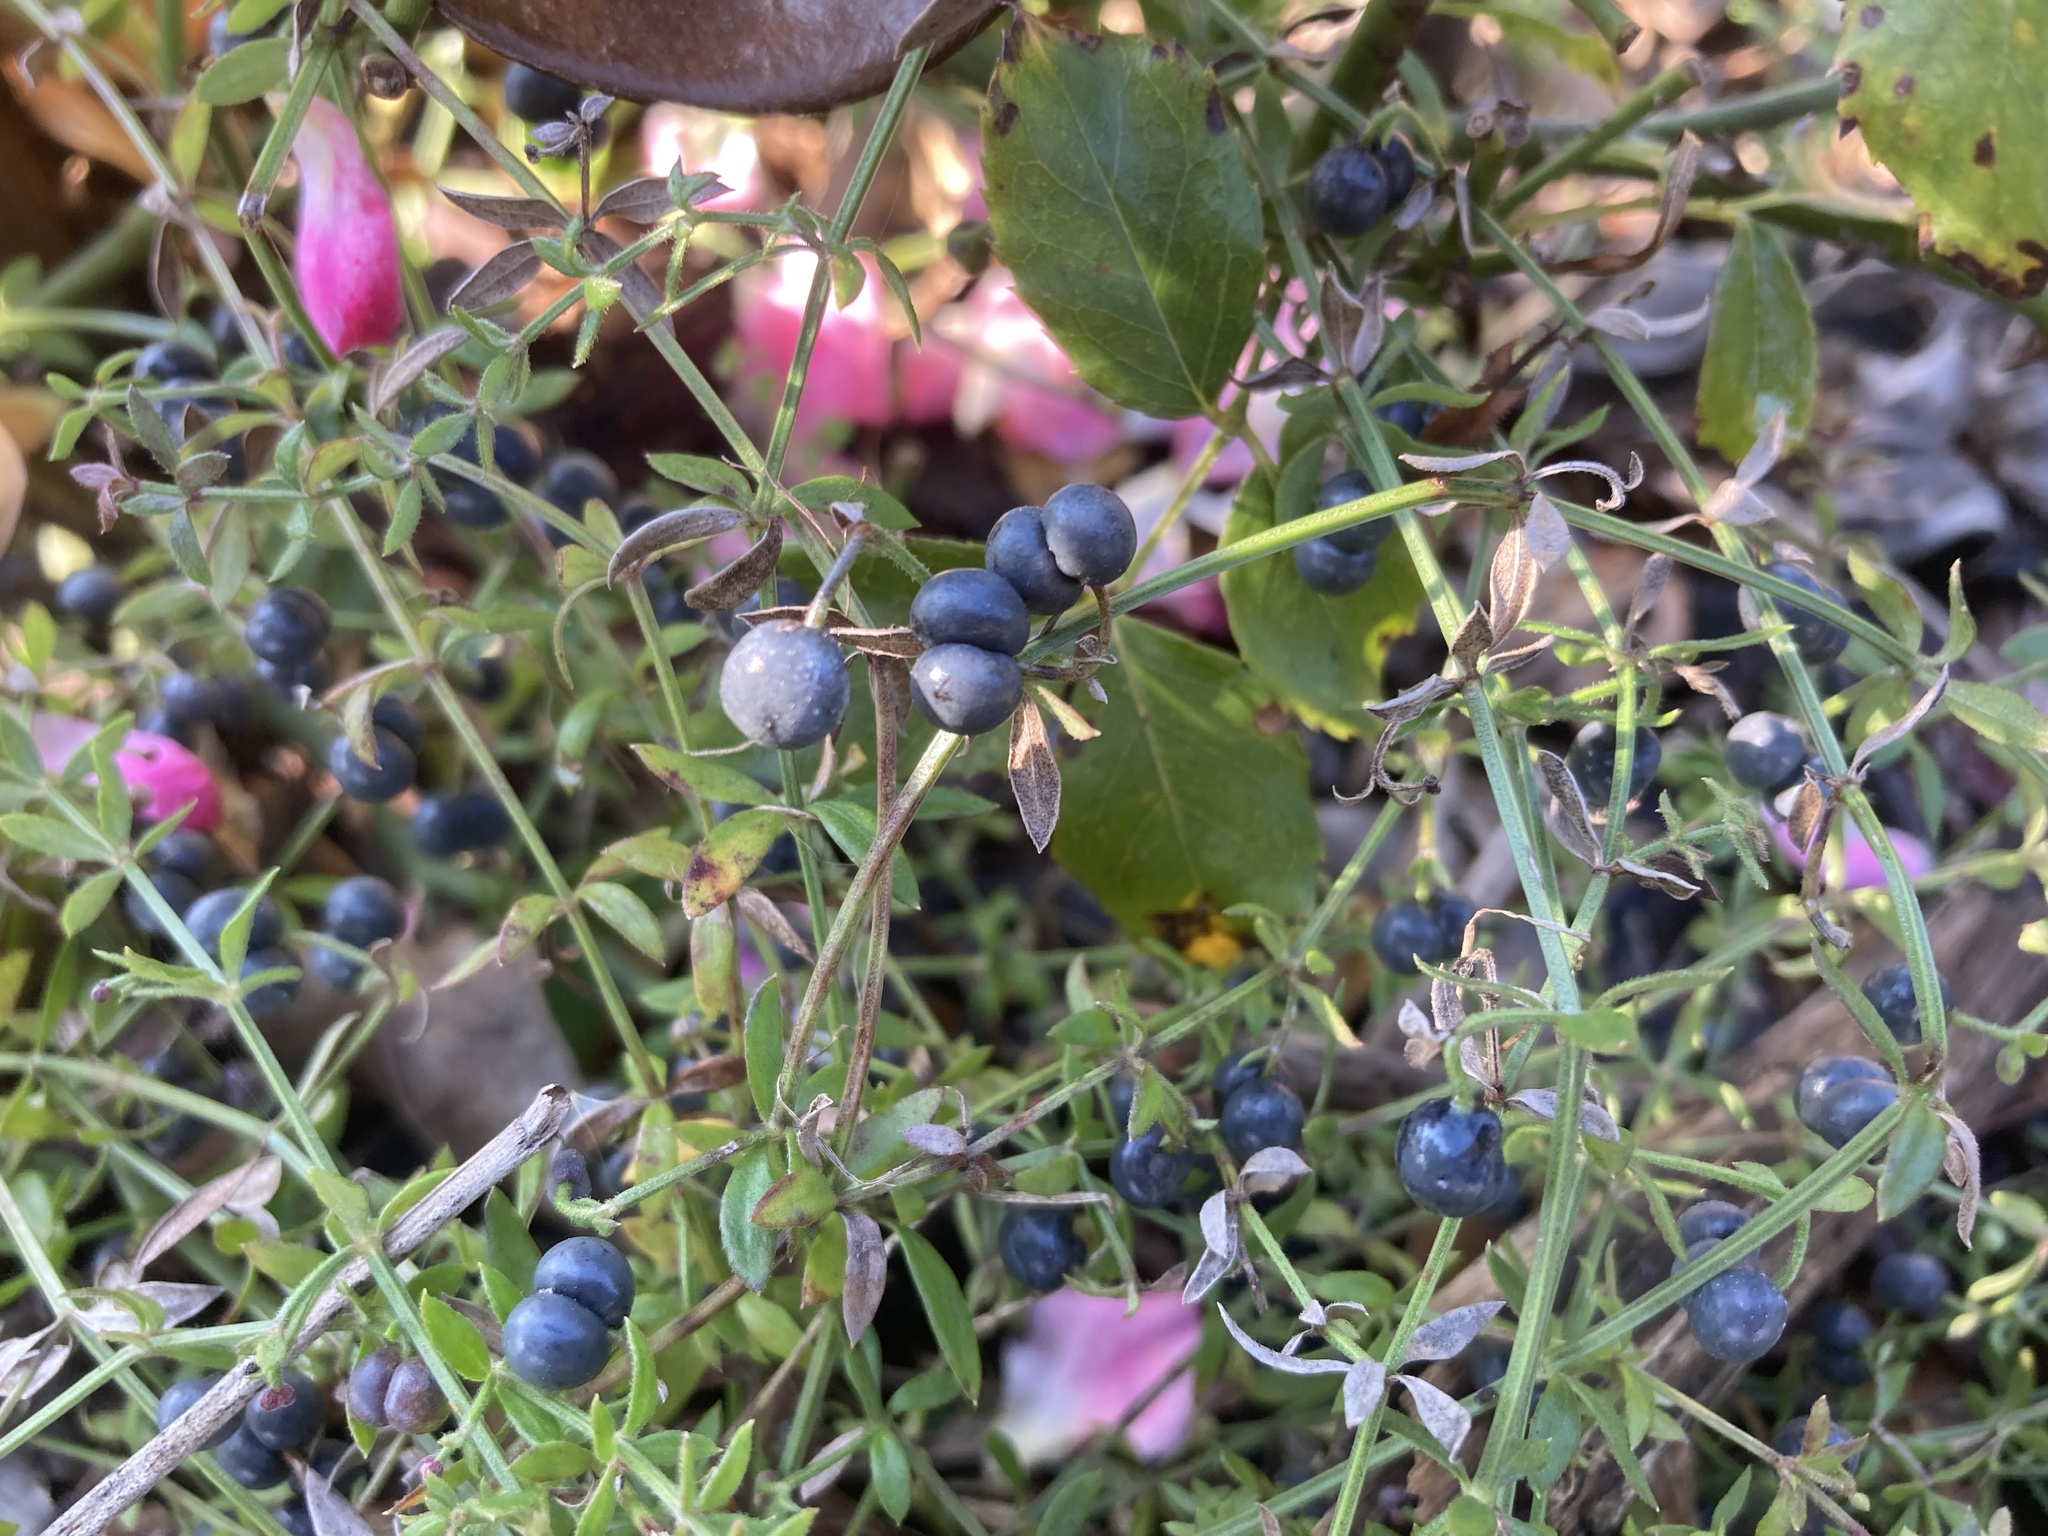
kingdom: Plantae
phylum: Tracheophyta
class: Magnoliopsida
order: Gentianales
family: Rubiaceae
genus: Galium
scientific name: Galium bermudense
